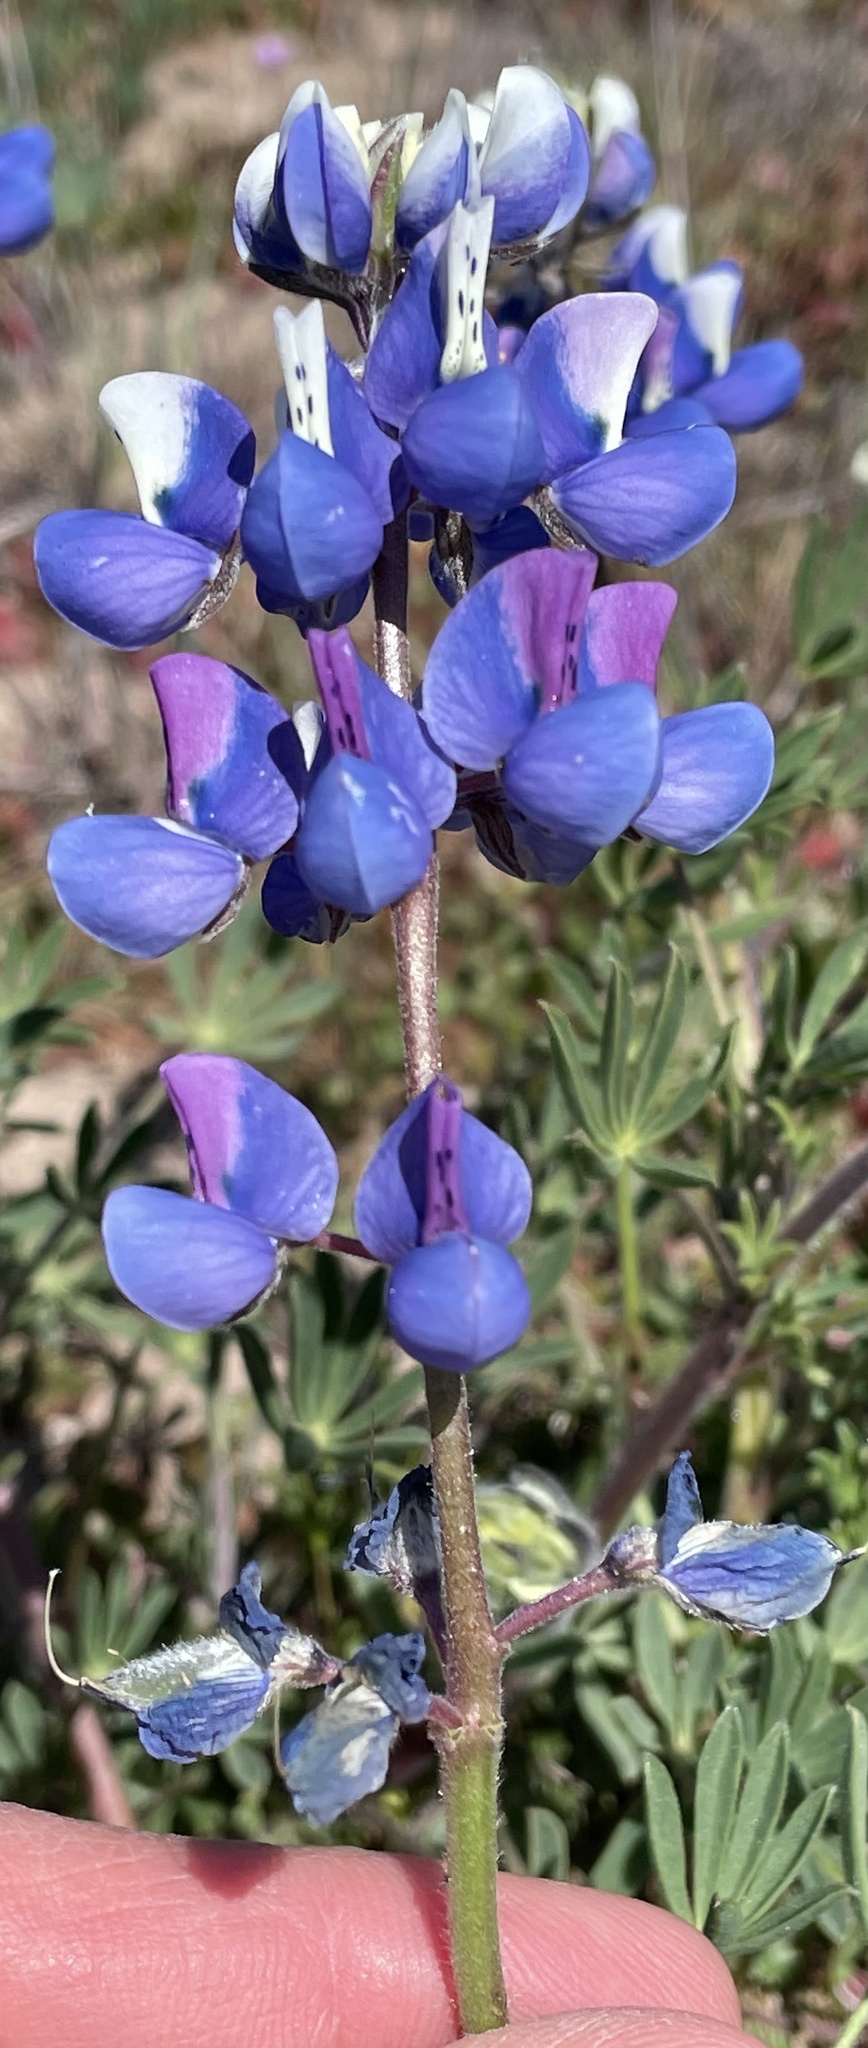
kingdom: Plantae
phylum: Tracheophyta
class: Magnoliopsida
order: Fabales
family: Fabaceae
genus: Lupinus
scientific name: Lupinus nanus
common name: Orean blue lupin
